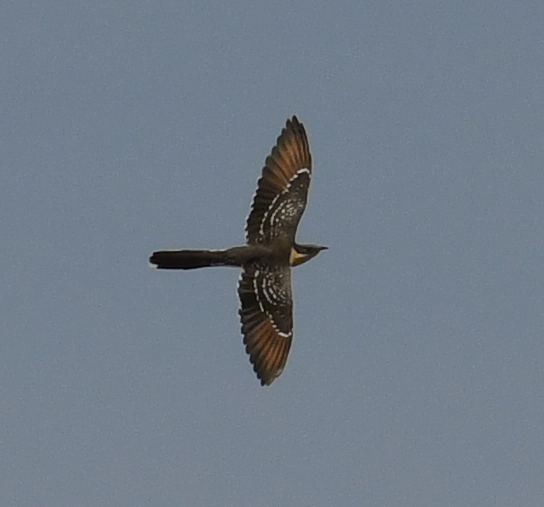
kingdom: Animalia
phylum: Chordata
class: Aves
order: Cuculiformes
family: Cuculidae
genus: Clamator
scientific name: Clamator glandarius
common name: Great spotted cuckoo
